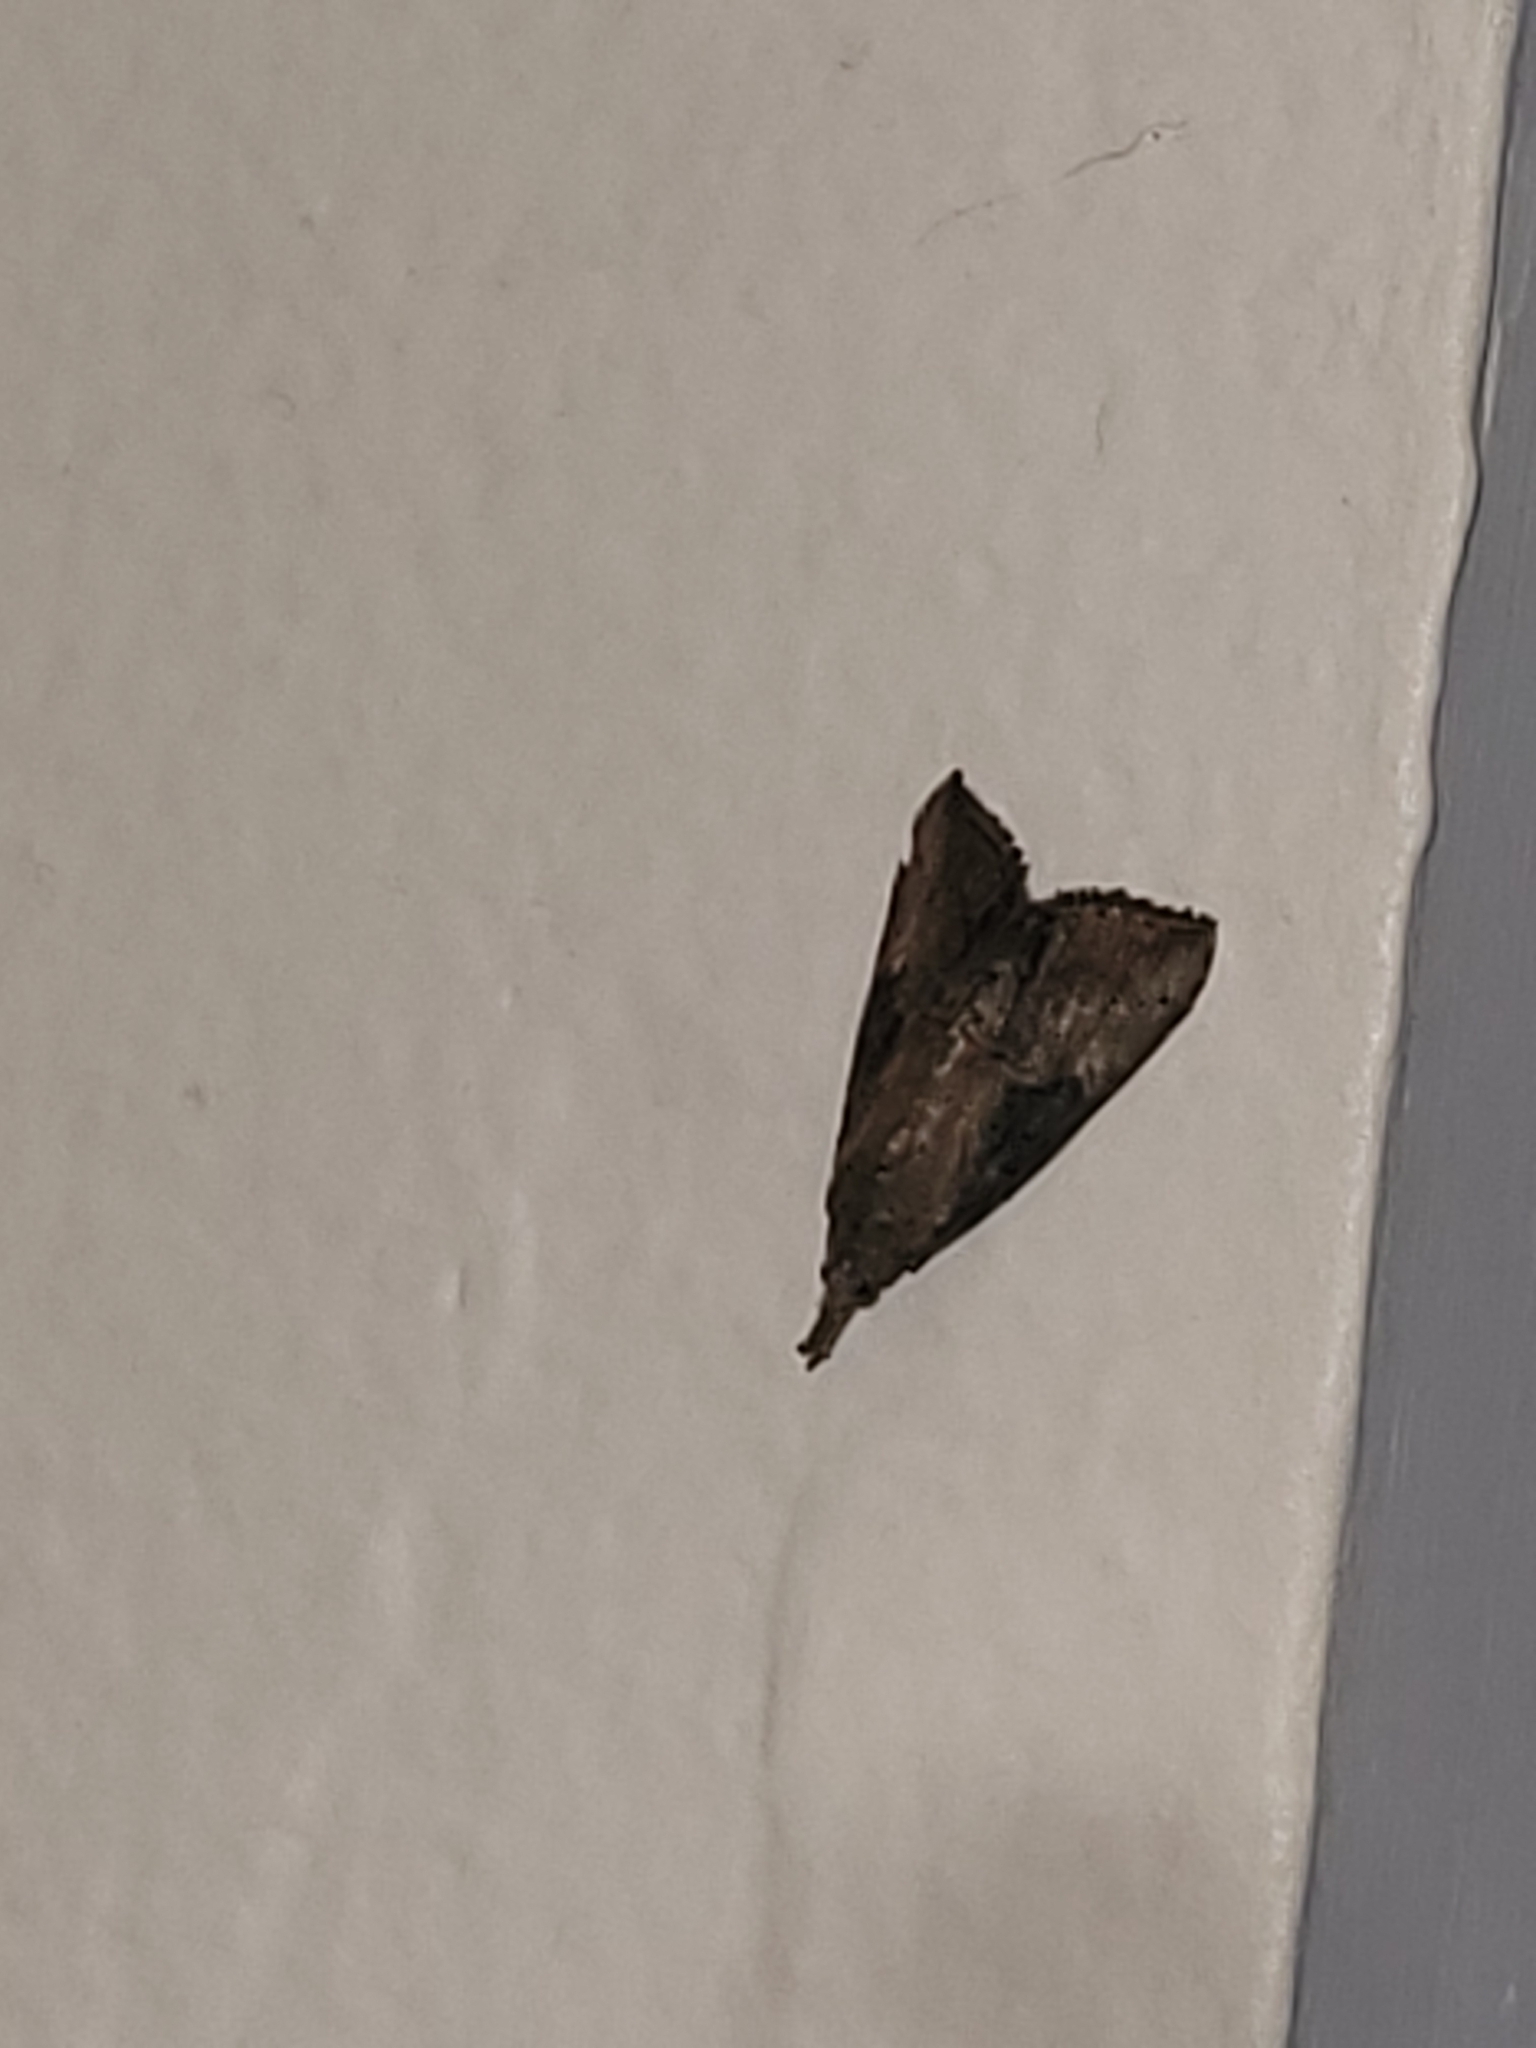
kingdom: Animalia
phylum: Arthropoda
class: Insecta
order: Lepidoptera
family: Erebidae
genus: Hypena
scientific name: Hypena scabra
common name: Green cloverworm
